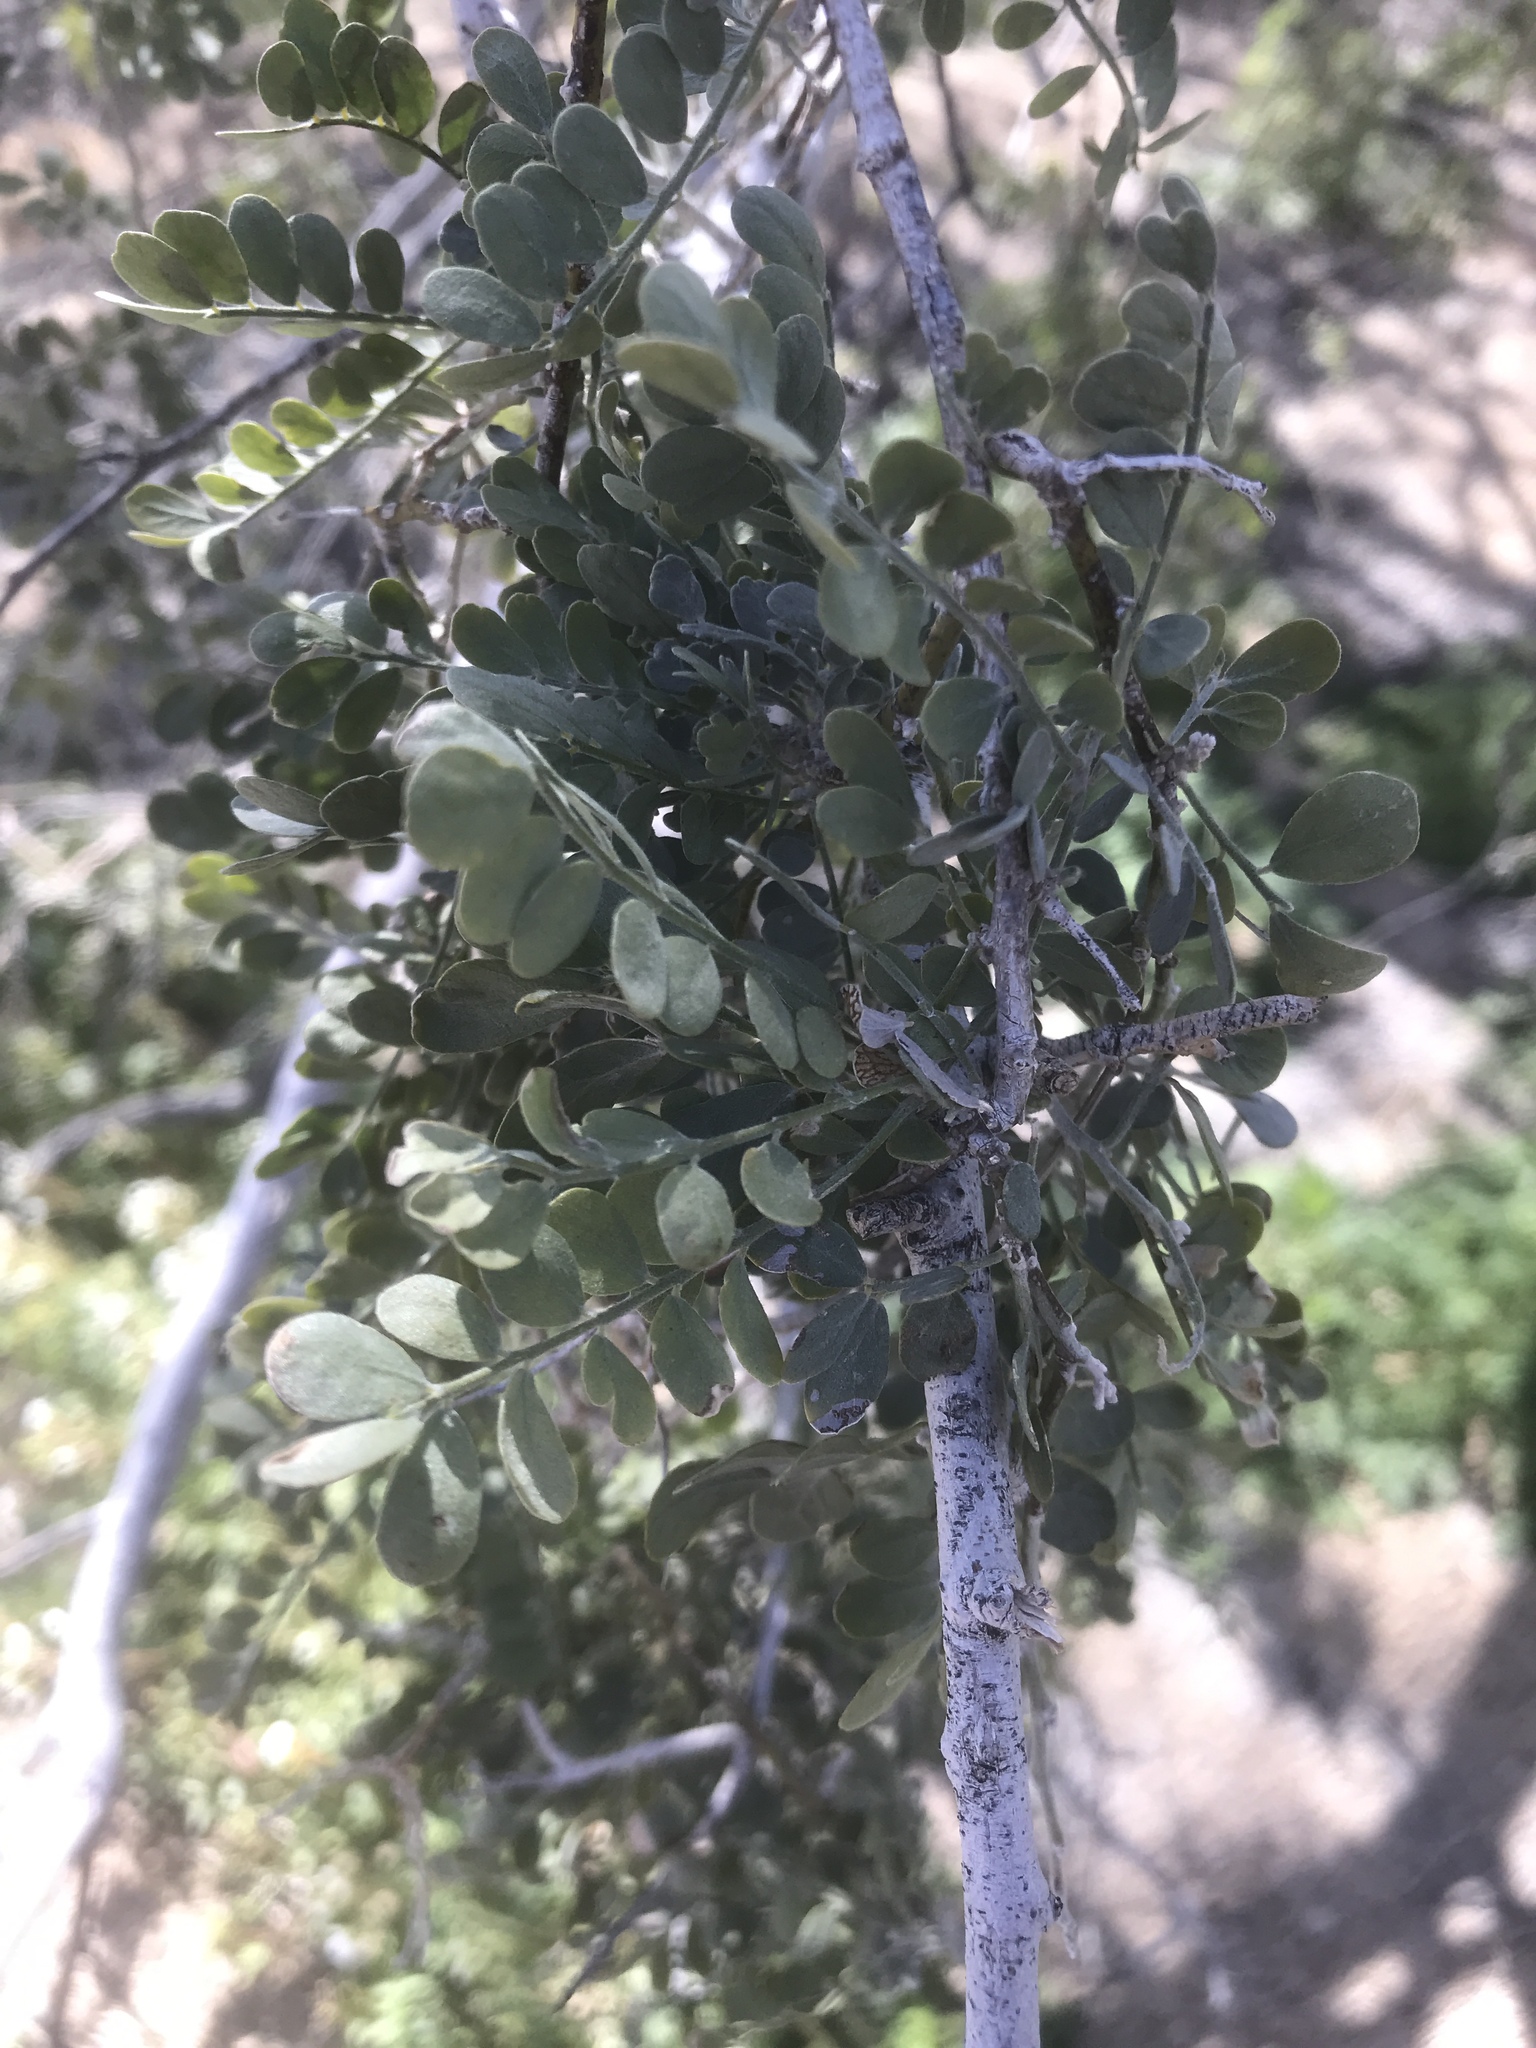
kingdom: Plantae
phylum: Tracheophyta
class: Magnoliopsida
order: Fabales
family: Fabaceae
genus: Olneya
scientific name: Olneya tesota
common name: Desert ironwood
